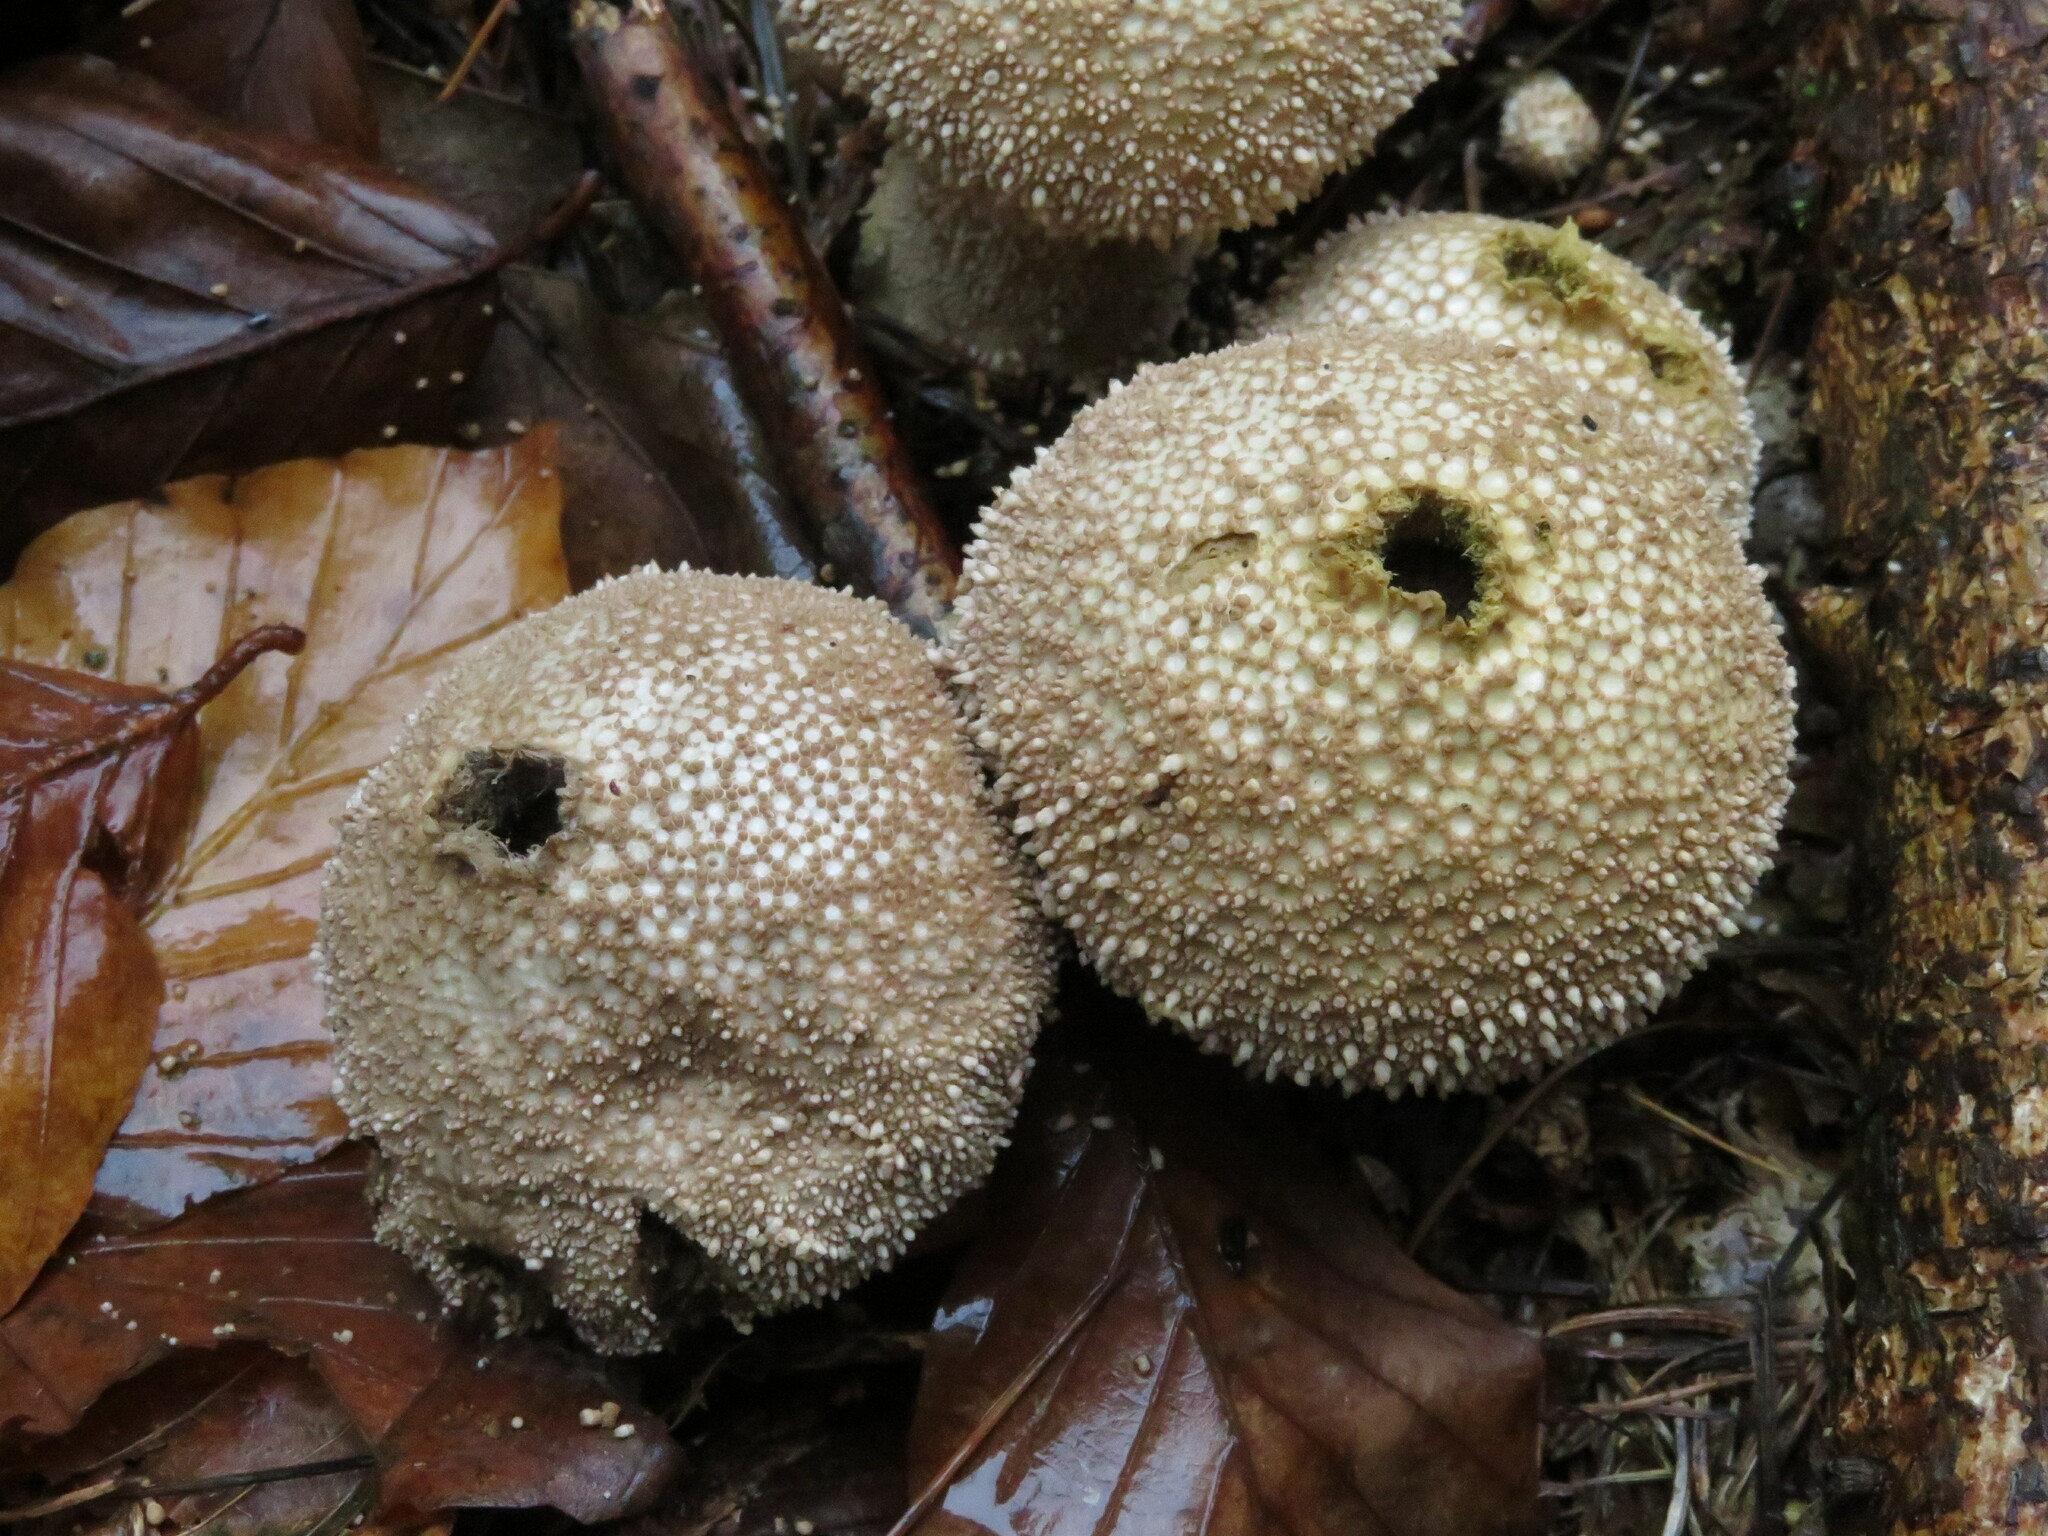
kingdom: Fungi
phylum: Basidiomycota
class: Agaricomycetes
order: Agaricales
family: Lycoperdaceae
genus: Lycoperdon
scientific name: Lycoperdon perlatum
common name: Common puffball
